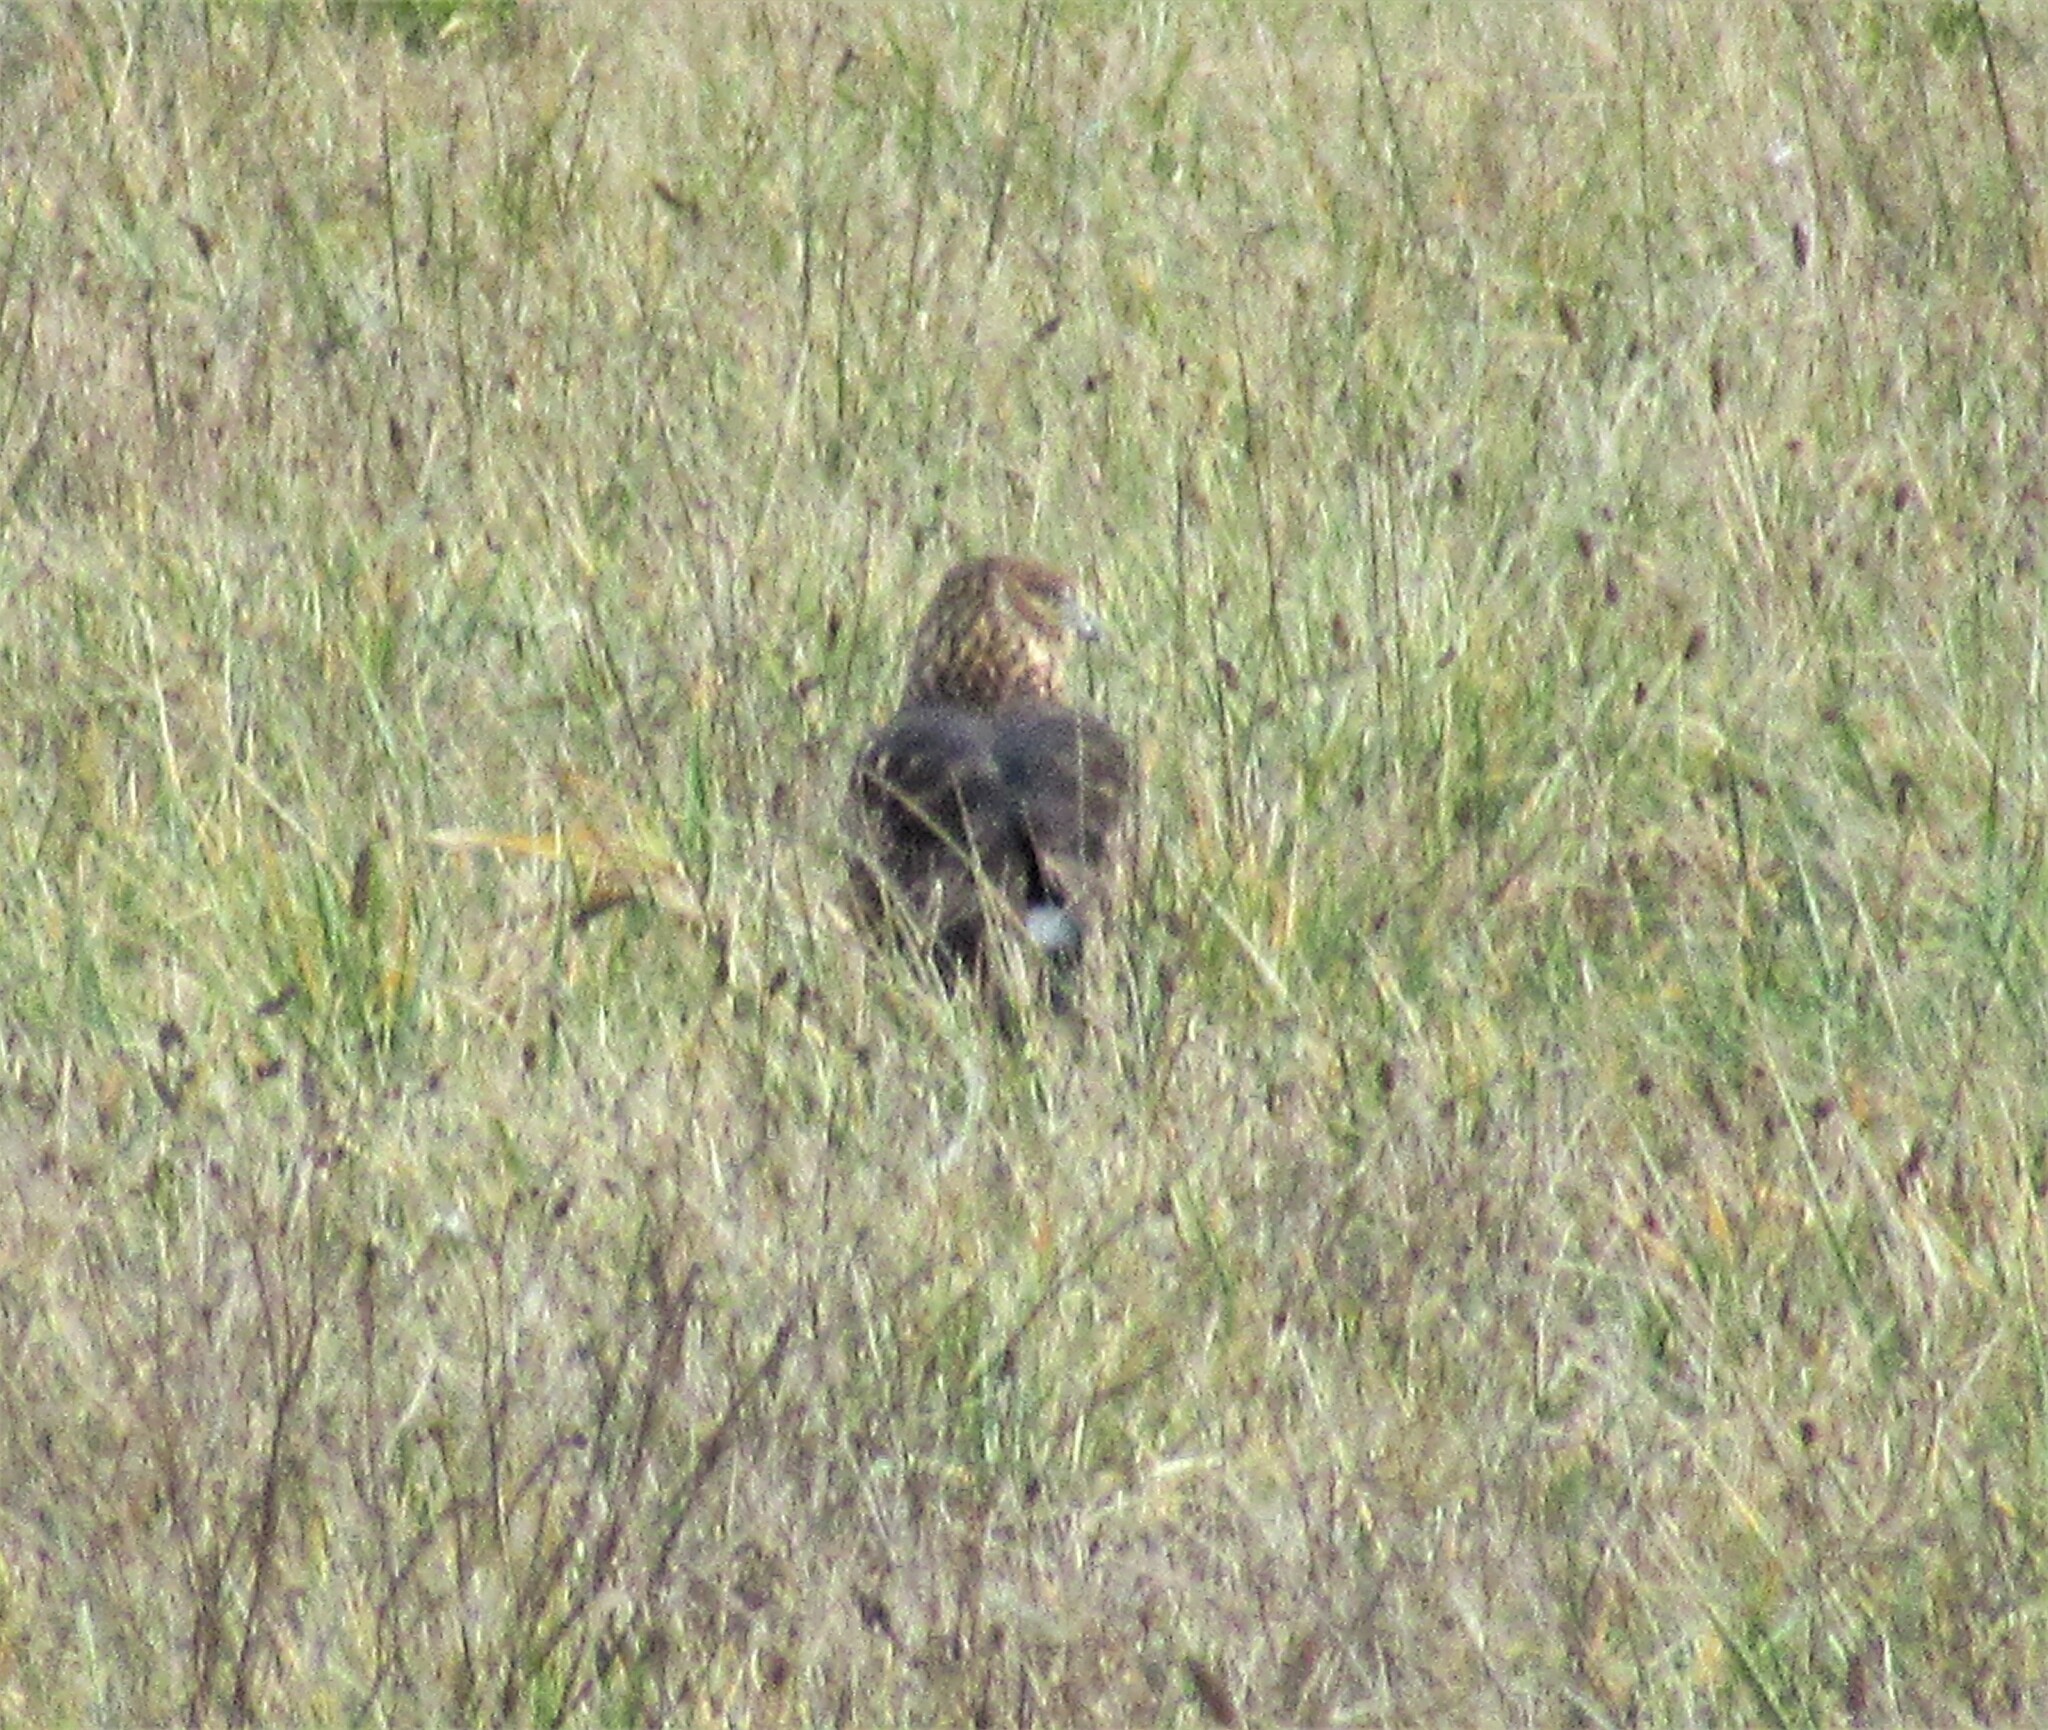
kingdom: Animalia
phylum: Chordata
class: Aves
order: Accipitriformes
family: Accipitridae
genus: Circus
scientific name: Circus cyaneus
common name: Hen harrier
